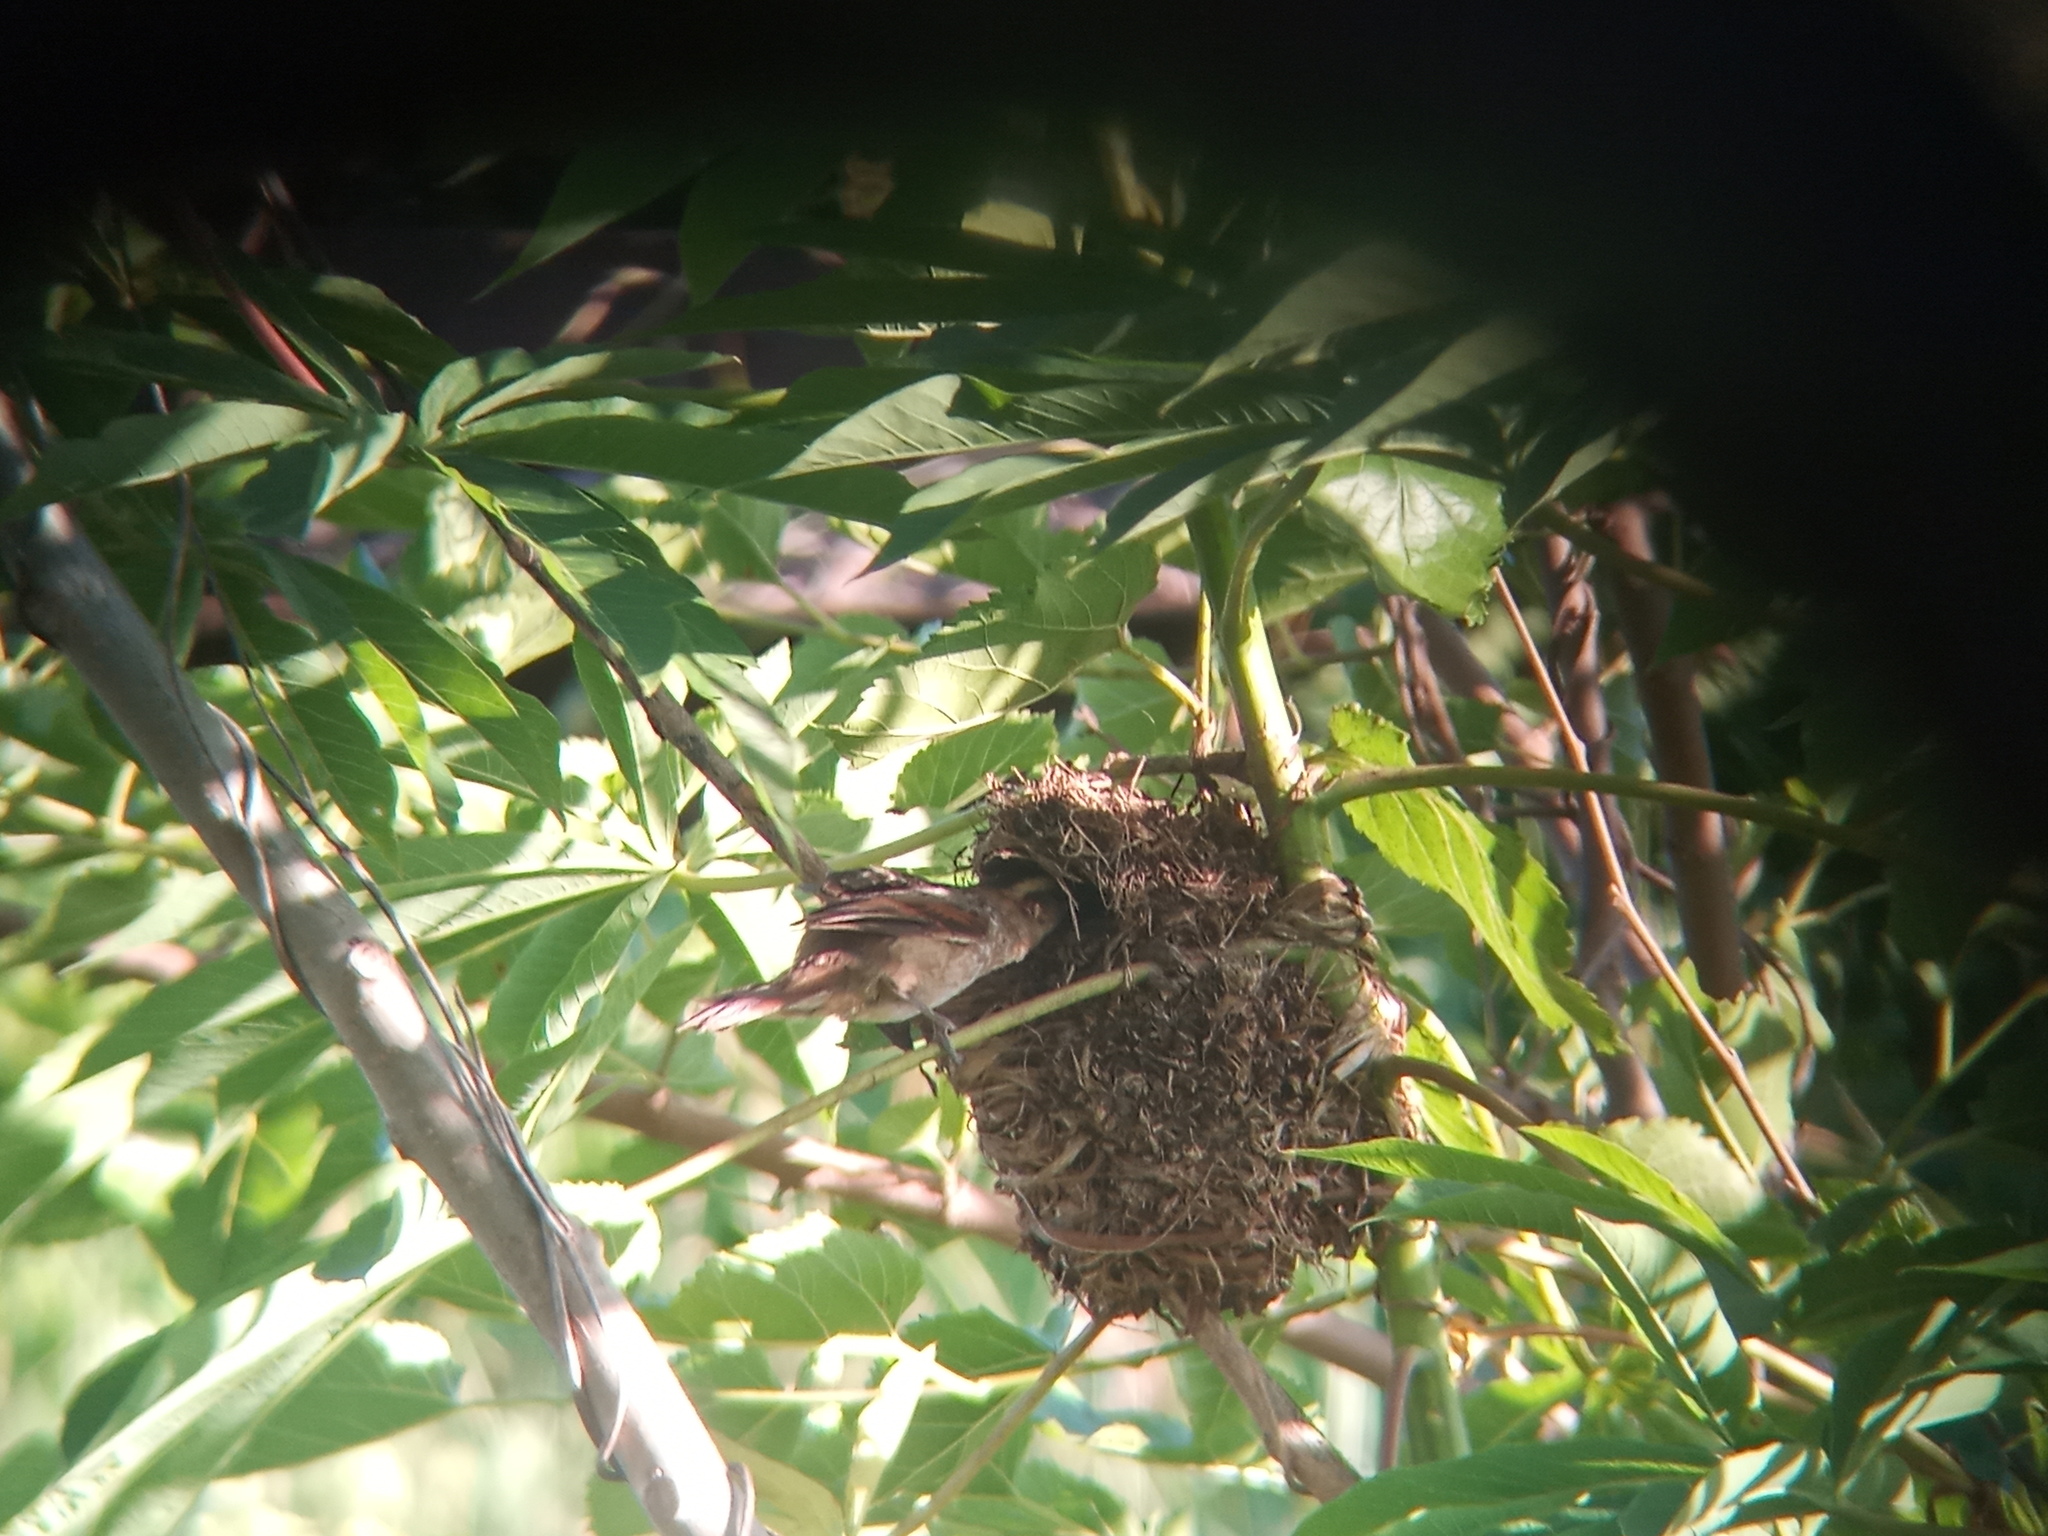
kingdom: Animalia
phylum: Chordata
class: Aves
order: Passeriformes
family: Furnariidae
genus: Phleocryptes
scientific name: Phleocryptes melanops
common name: Wren-like rushbird
